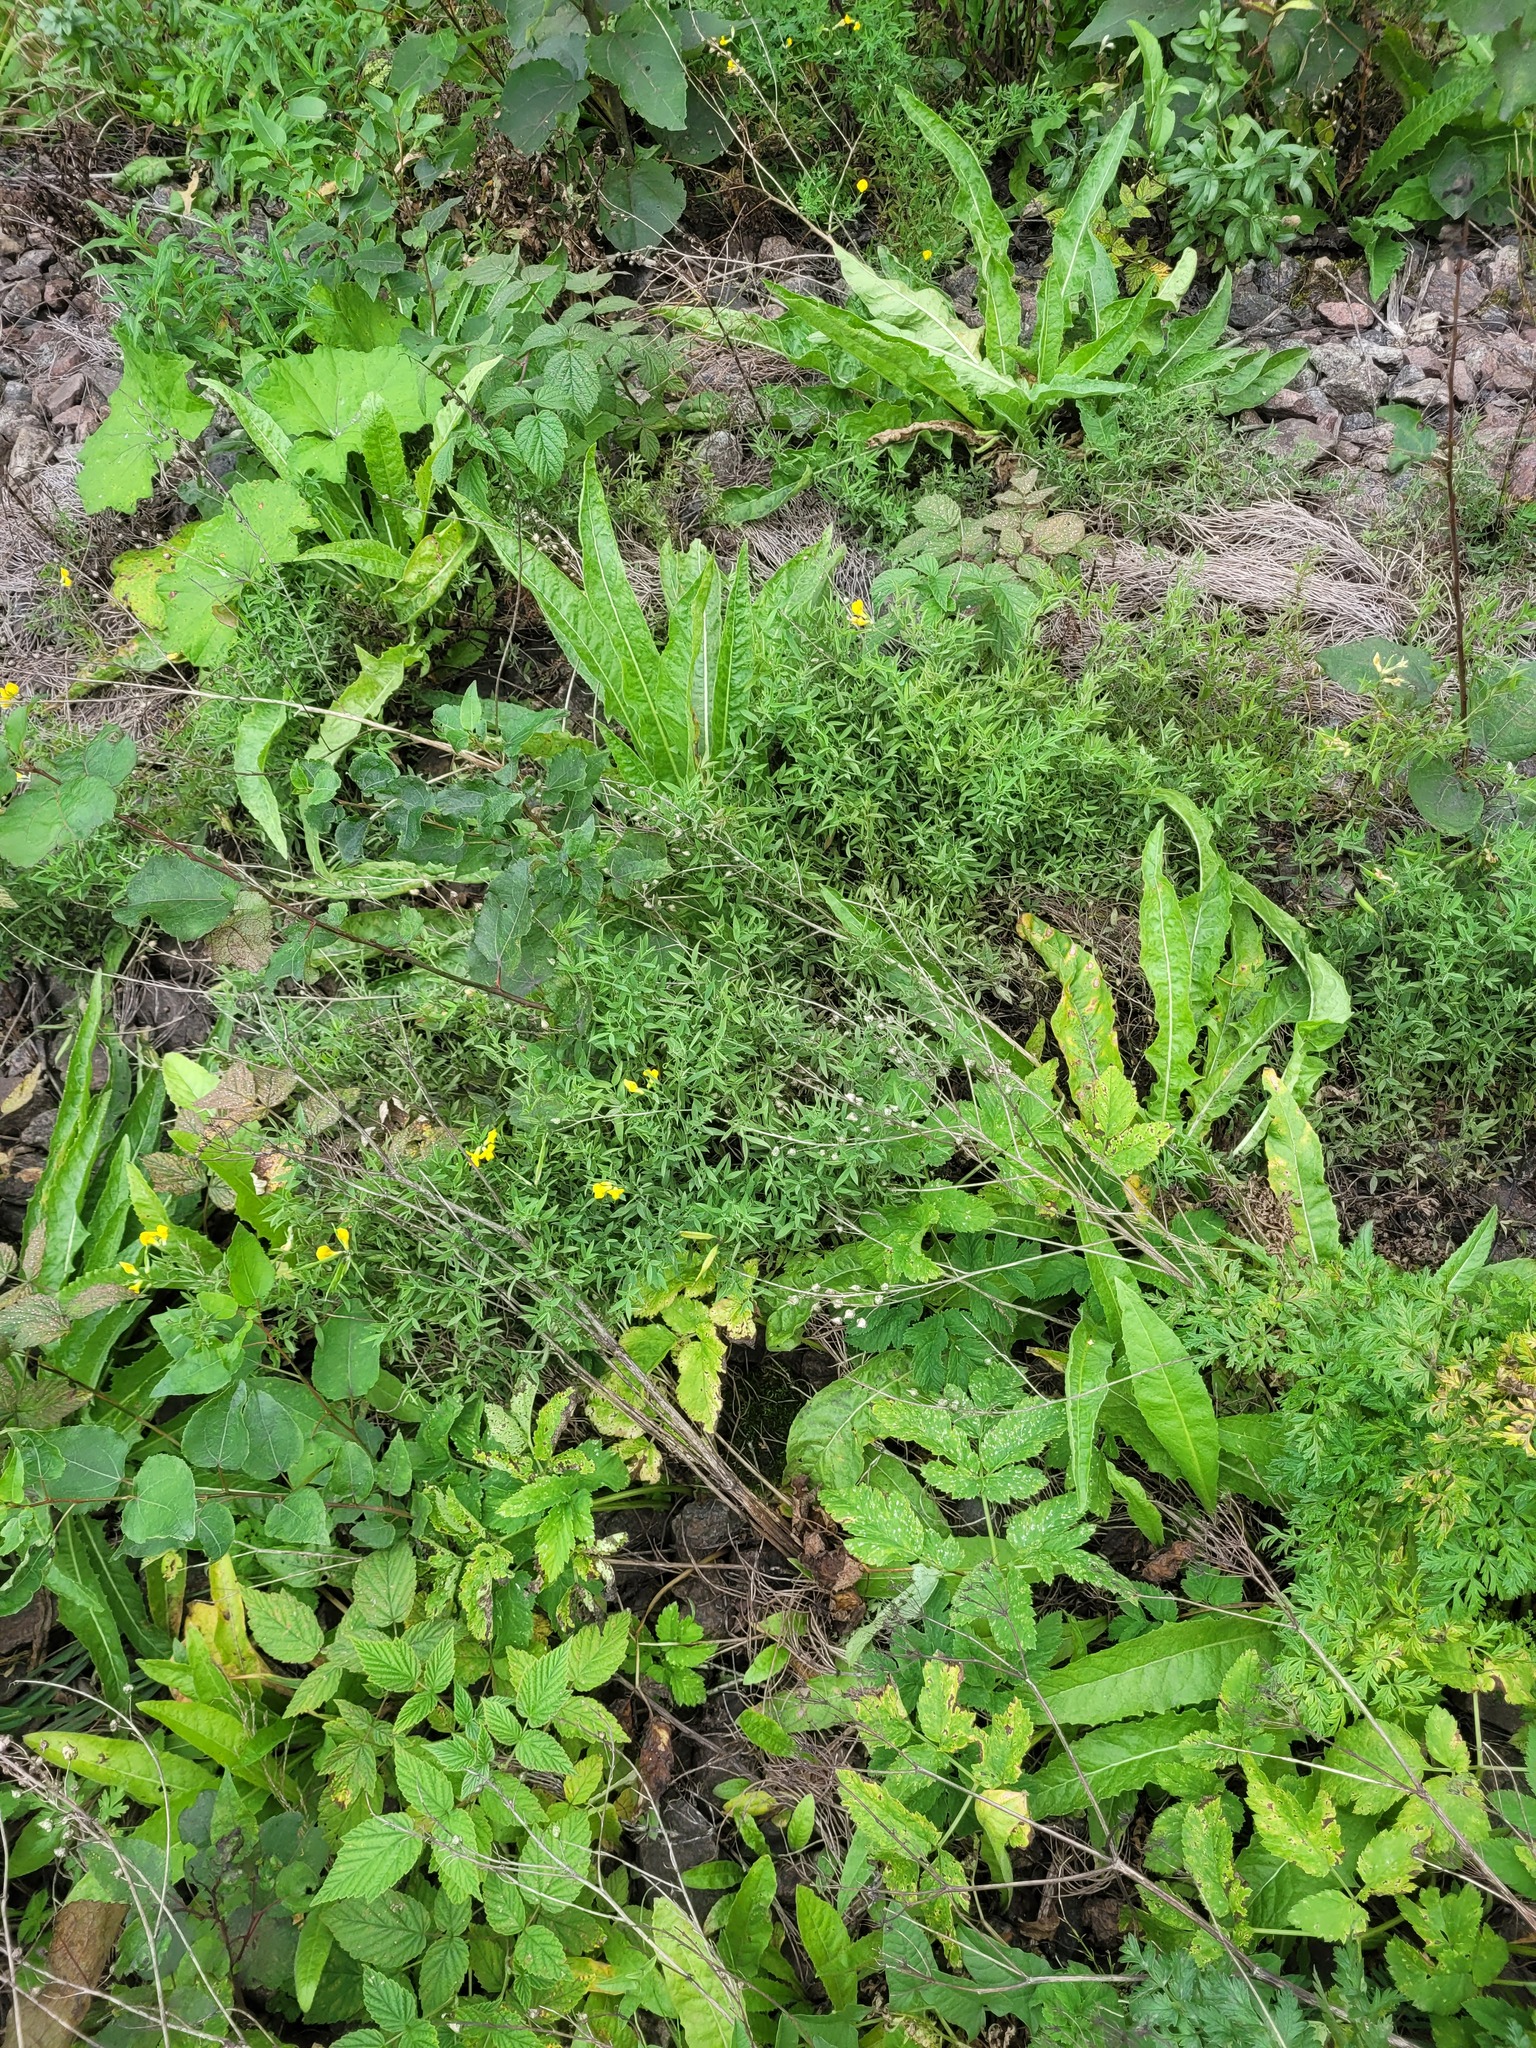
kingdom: Plantae
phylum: Tracheophyta
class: Magnoliopsida
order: Fabales
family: Fabaceae
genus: Lathyrus
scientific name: Lathyrus pratensis
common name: Meadow vetchling
